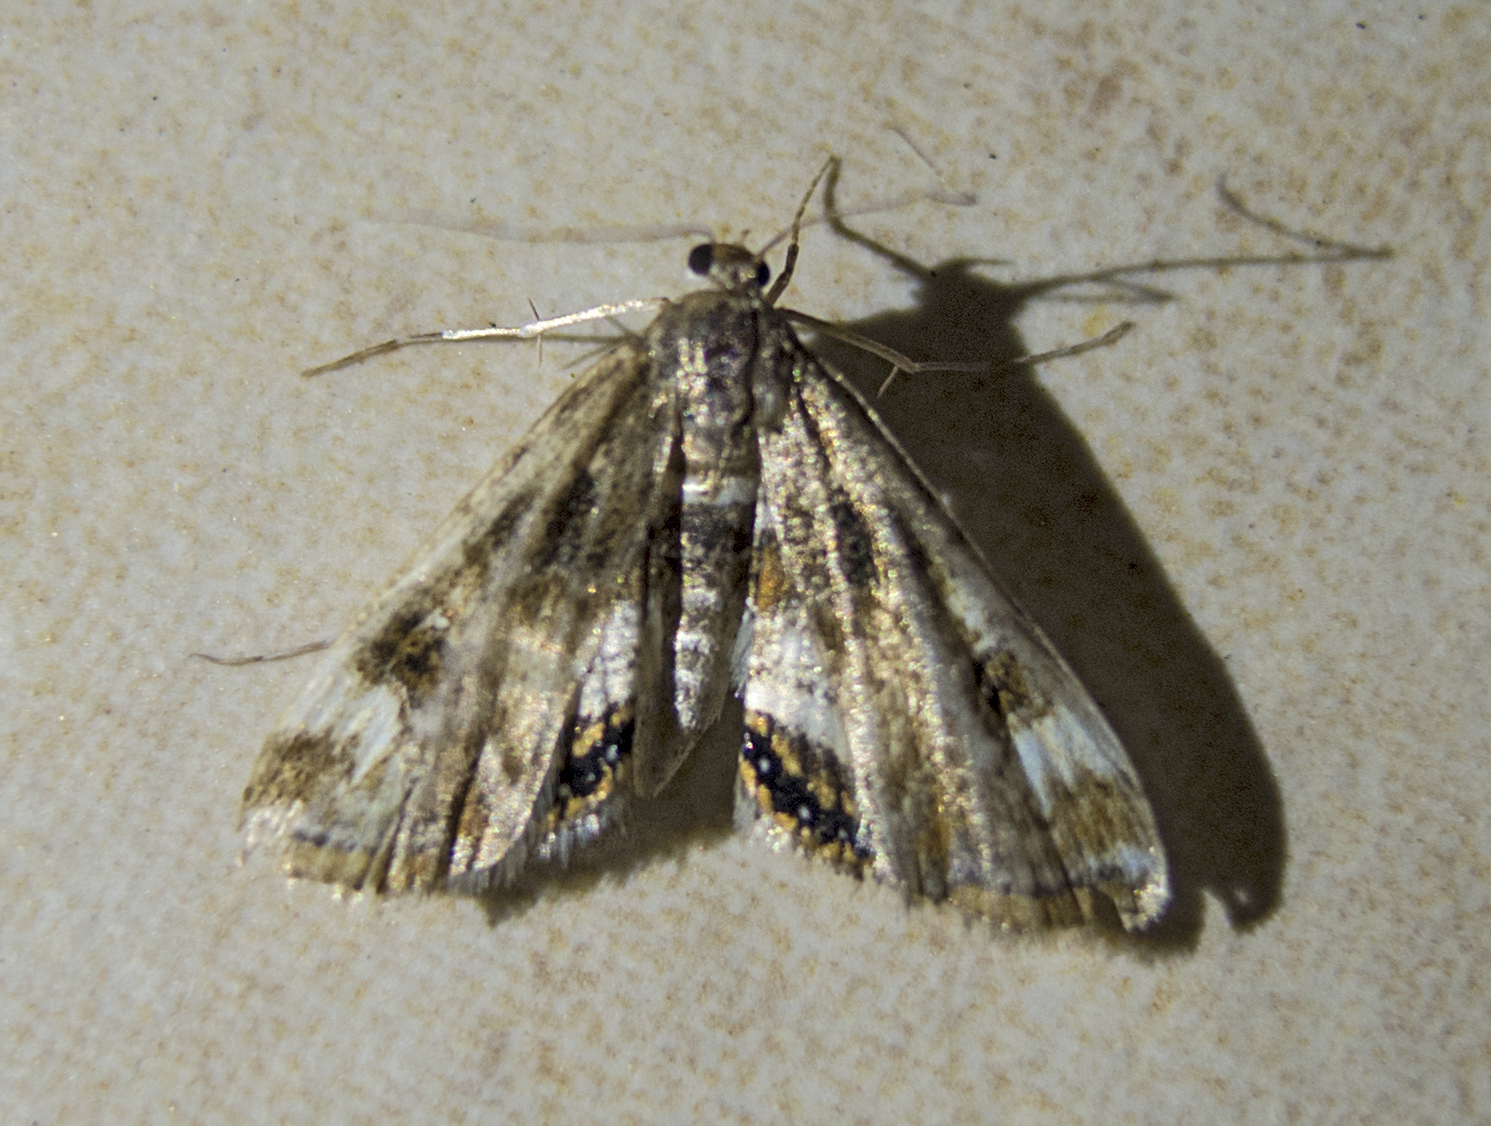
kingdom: Animalia
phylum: Arthropoda
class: Insecta
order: Lepidoptera
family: Crambidae
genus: Cataclysta
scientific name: Cataclysta lemnata
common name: Small china-mark
